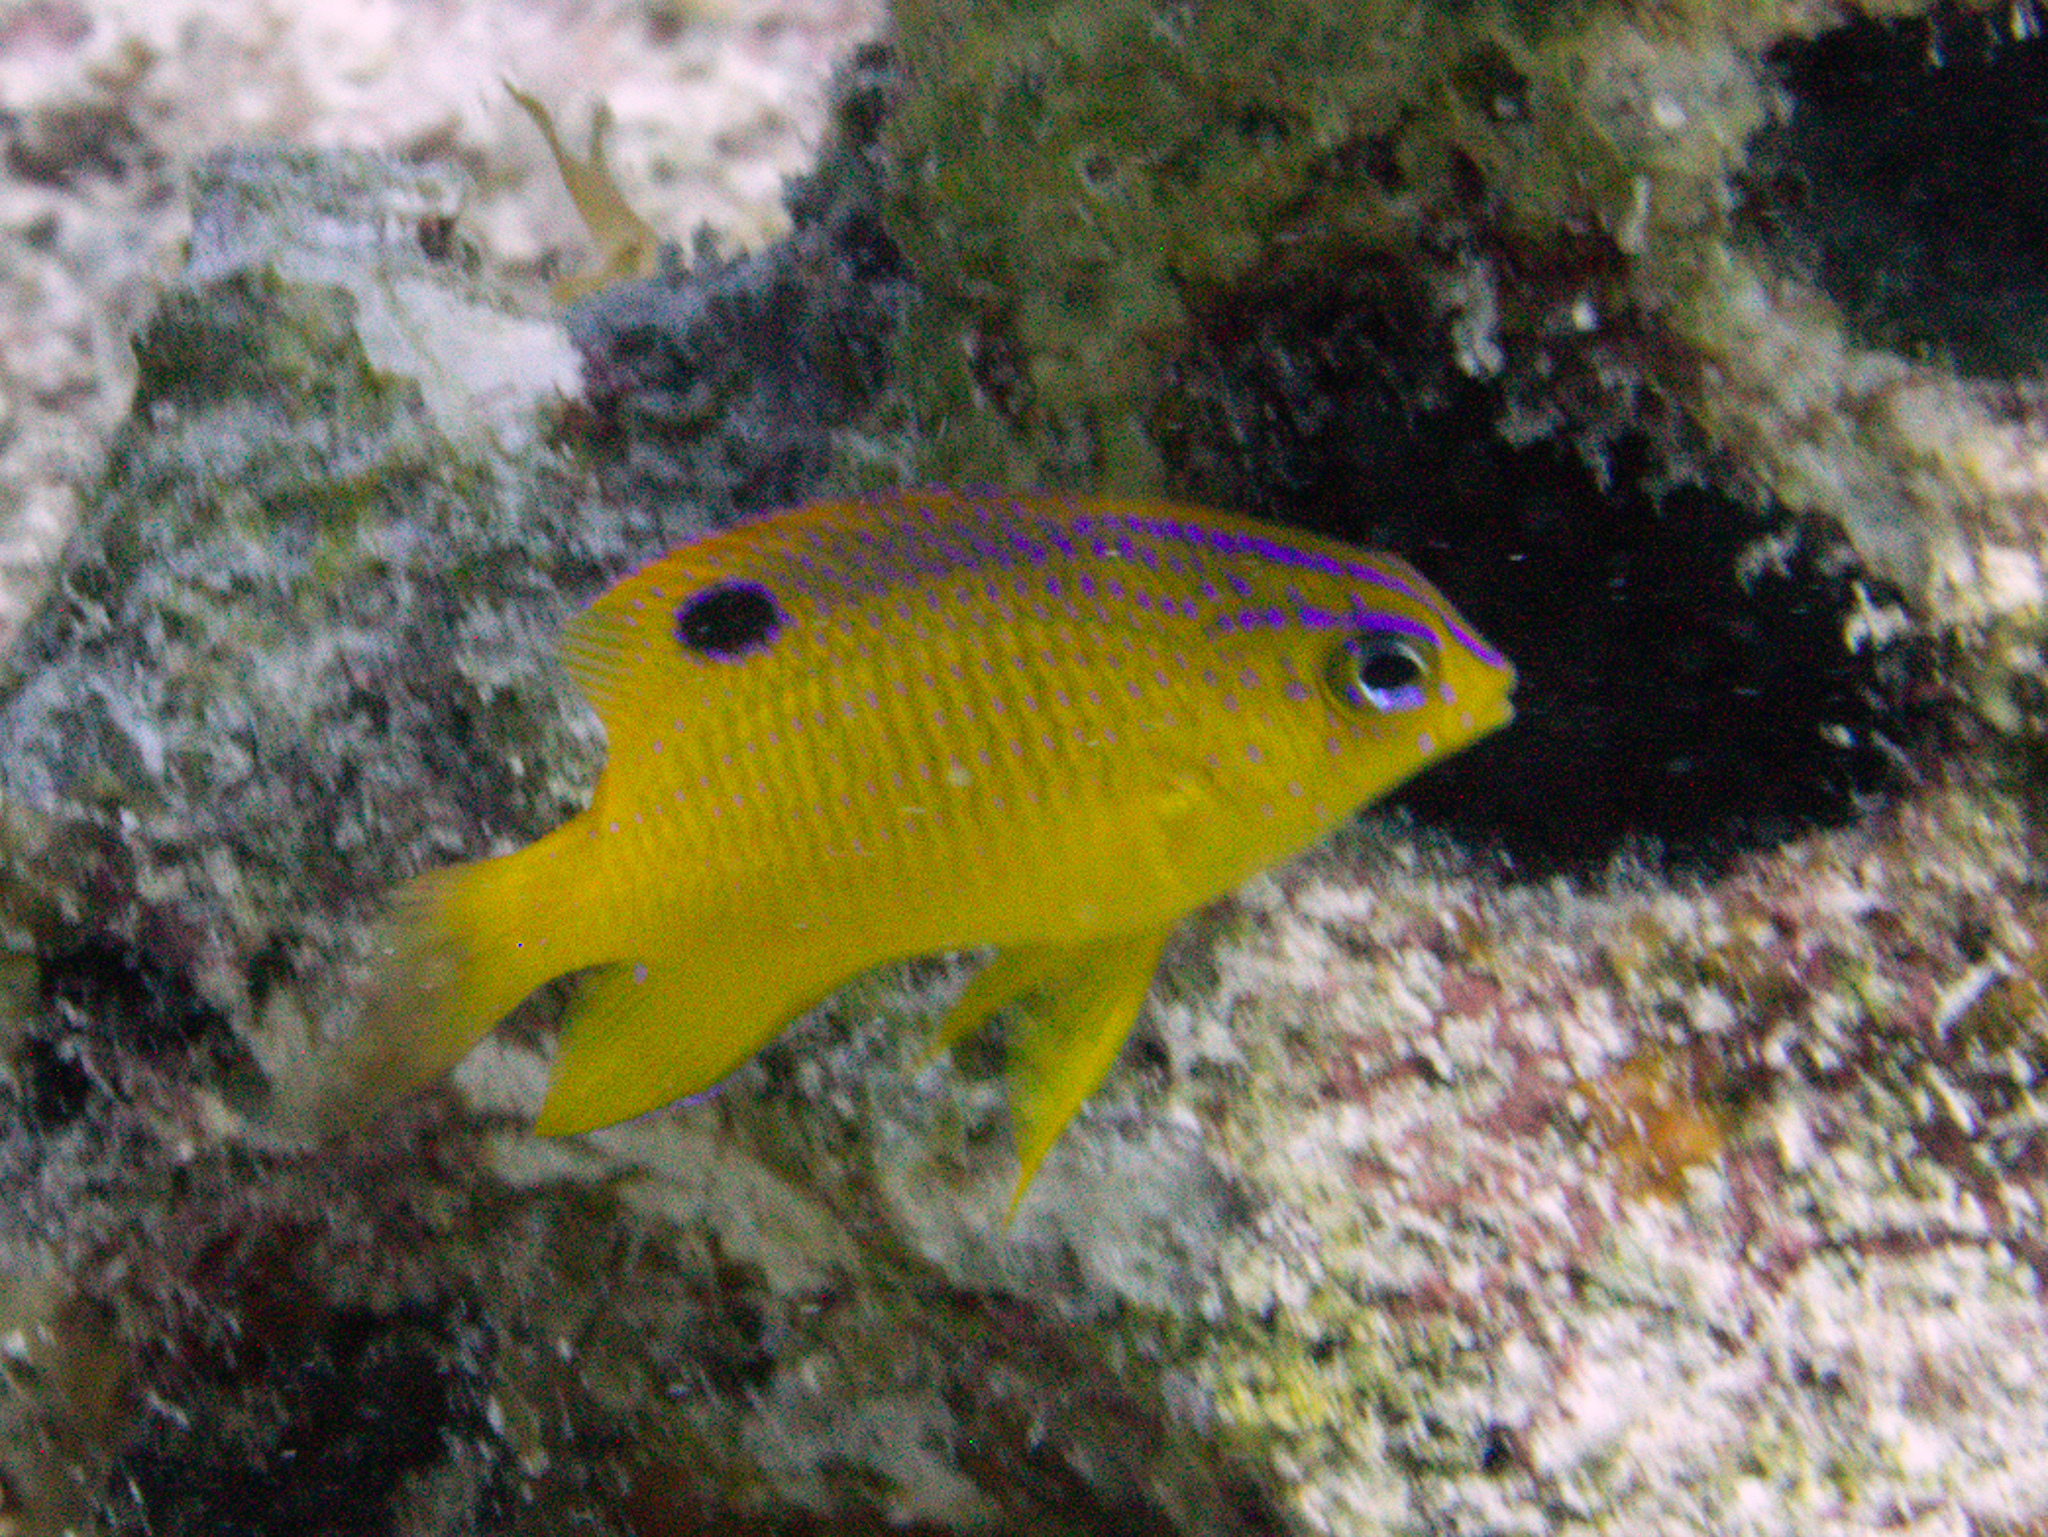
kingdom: Animalia
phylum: Chordata
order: Perciformes
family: Pomacentridae
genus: Stegastes
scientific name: Stegastes diencaeus
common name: Longfin damselfish
